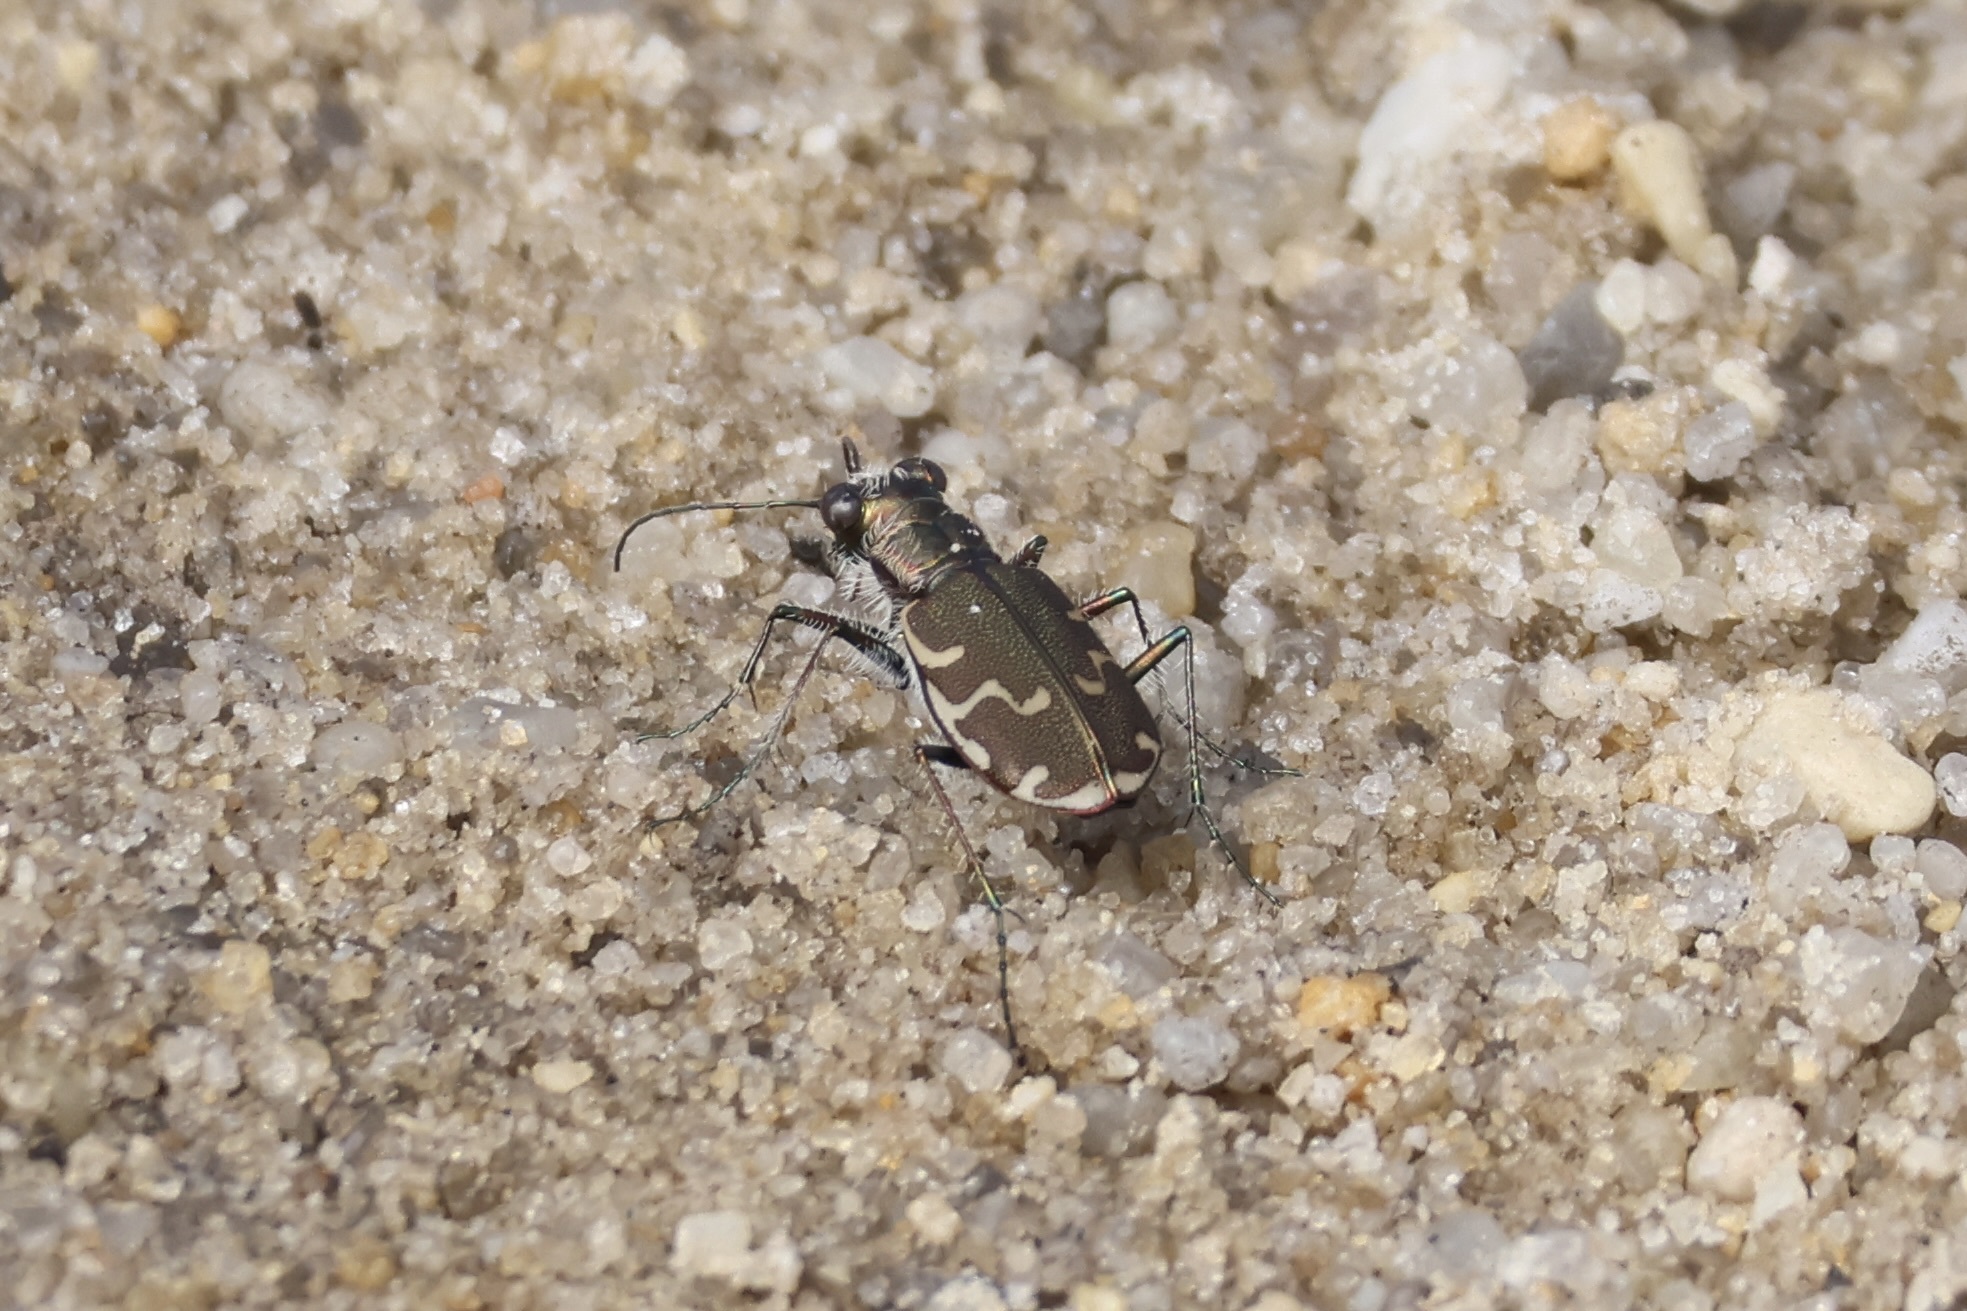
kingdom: Animalia
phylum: Arthropoda
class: Insecta
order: Coleoptera
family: Carabidae
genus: Cicindela
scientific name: Cicindela repanda
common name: Bronzed tiger beetle
